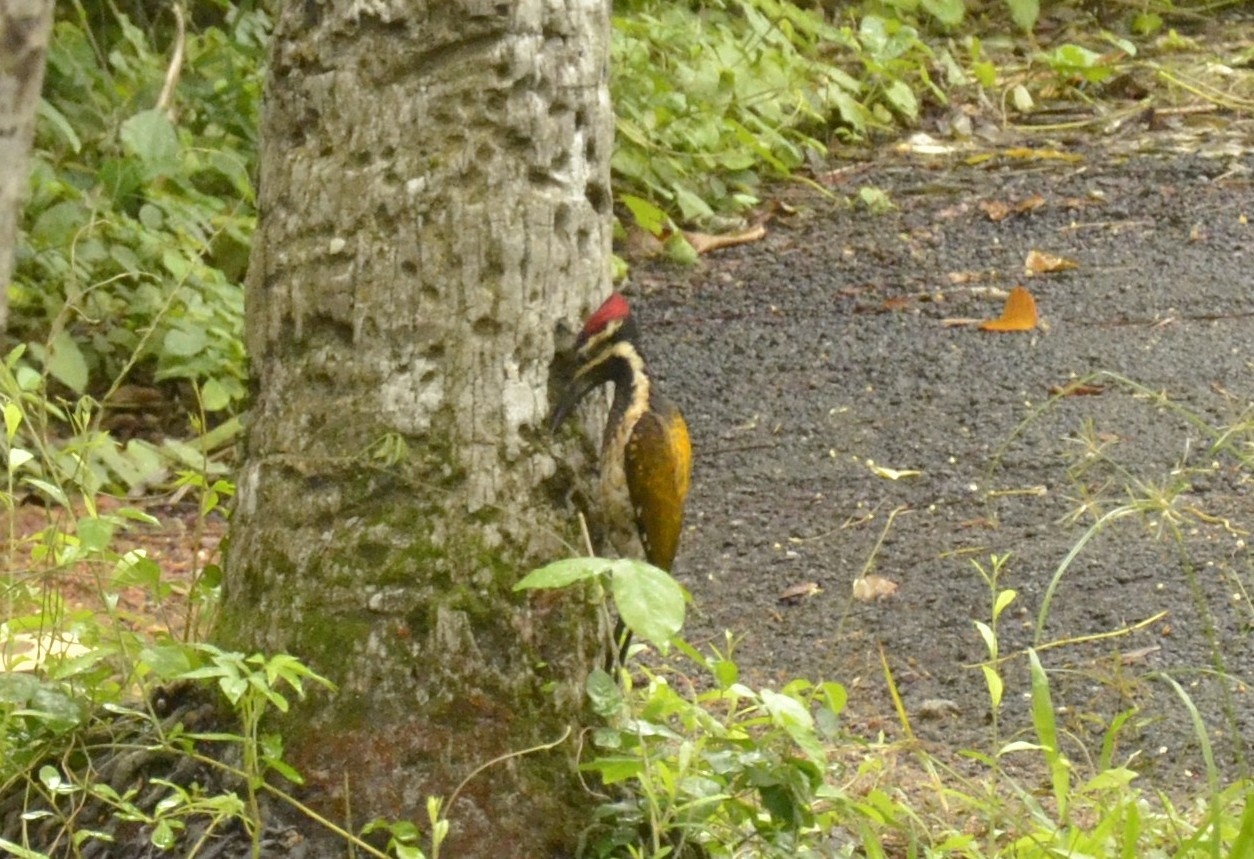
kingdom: Animalia
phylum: Chordata
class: Aves
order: Piciformes
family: Picidae
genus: Dinopium
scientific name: Dinopium benghalense
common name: Black-rumped flameback
